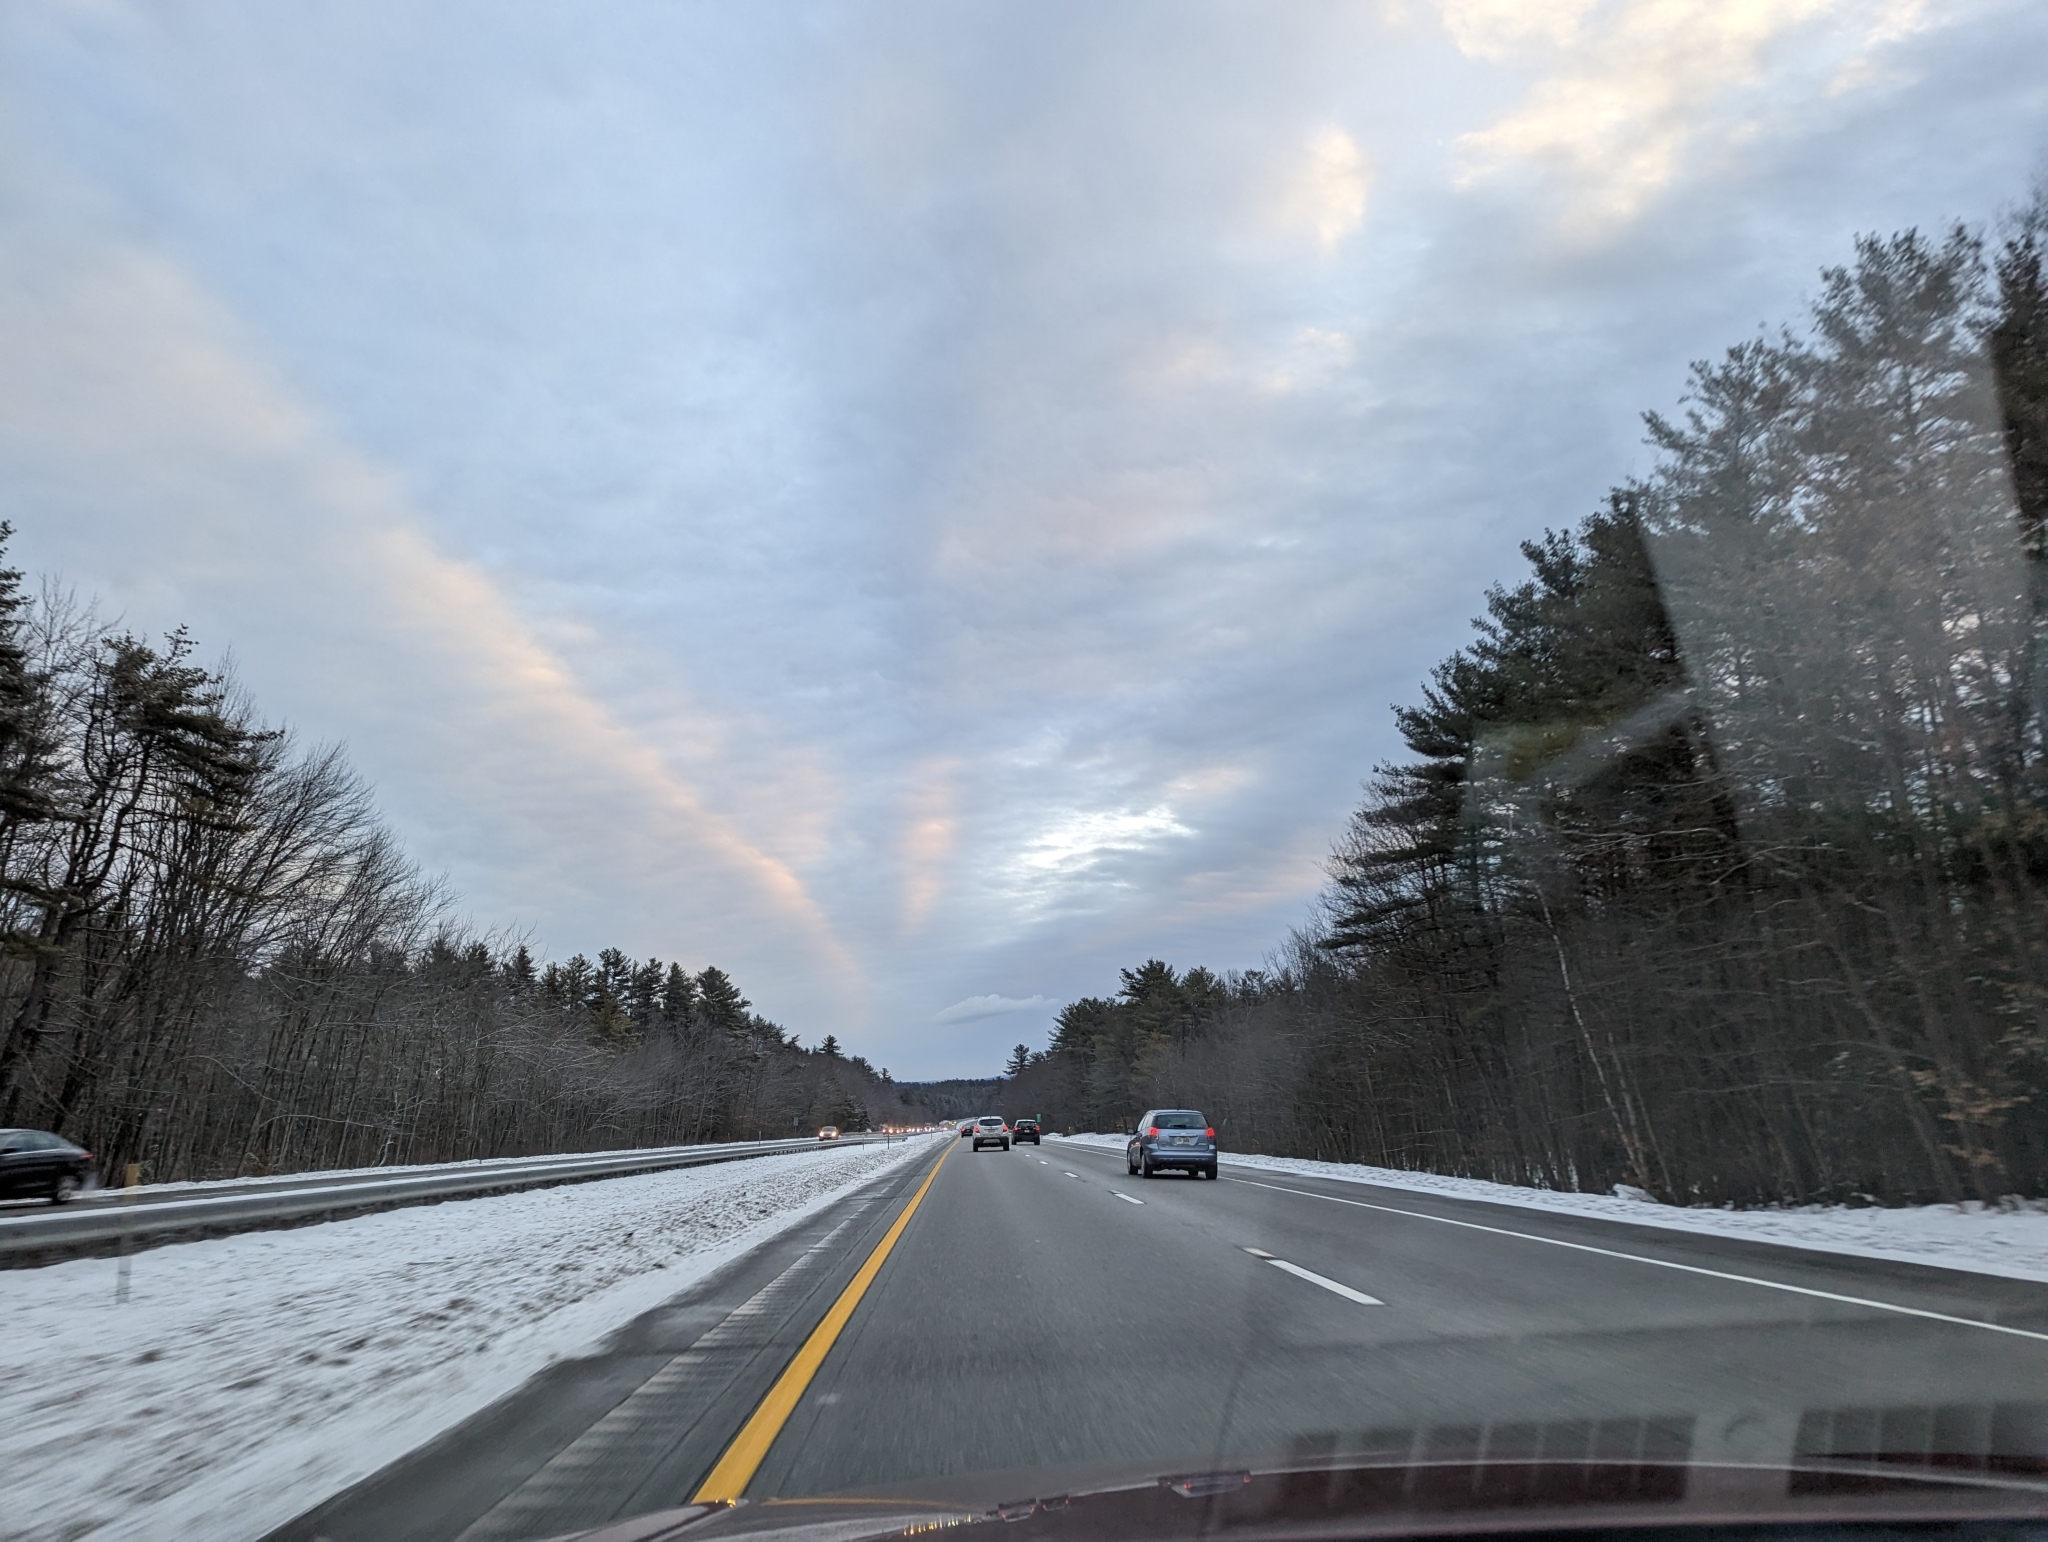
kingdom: Plantae
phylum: Tracheophyta
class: Pinopsida
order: Pinales
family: Pinaceae
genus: Pinus
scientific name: Pinus strobus
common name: Weymouth pine
